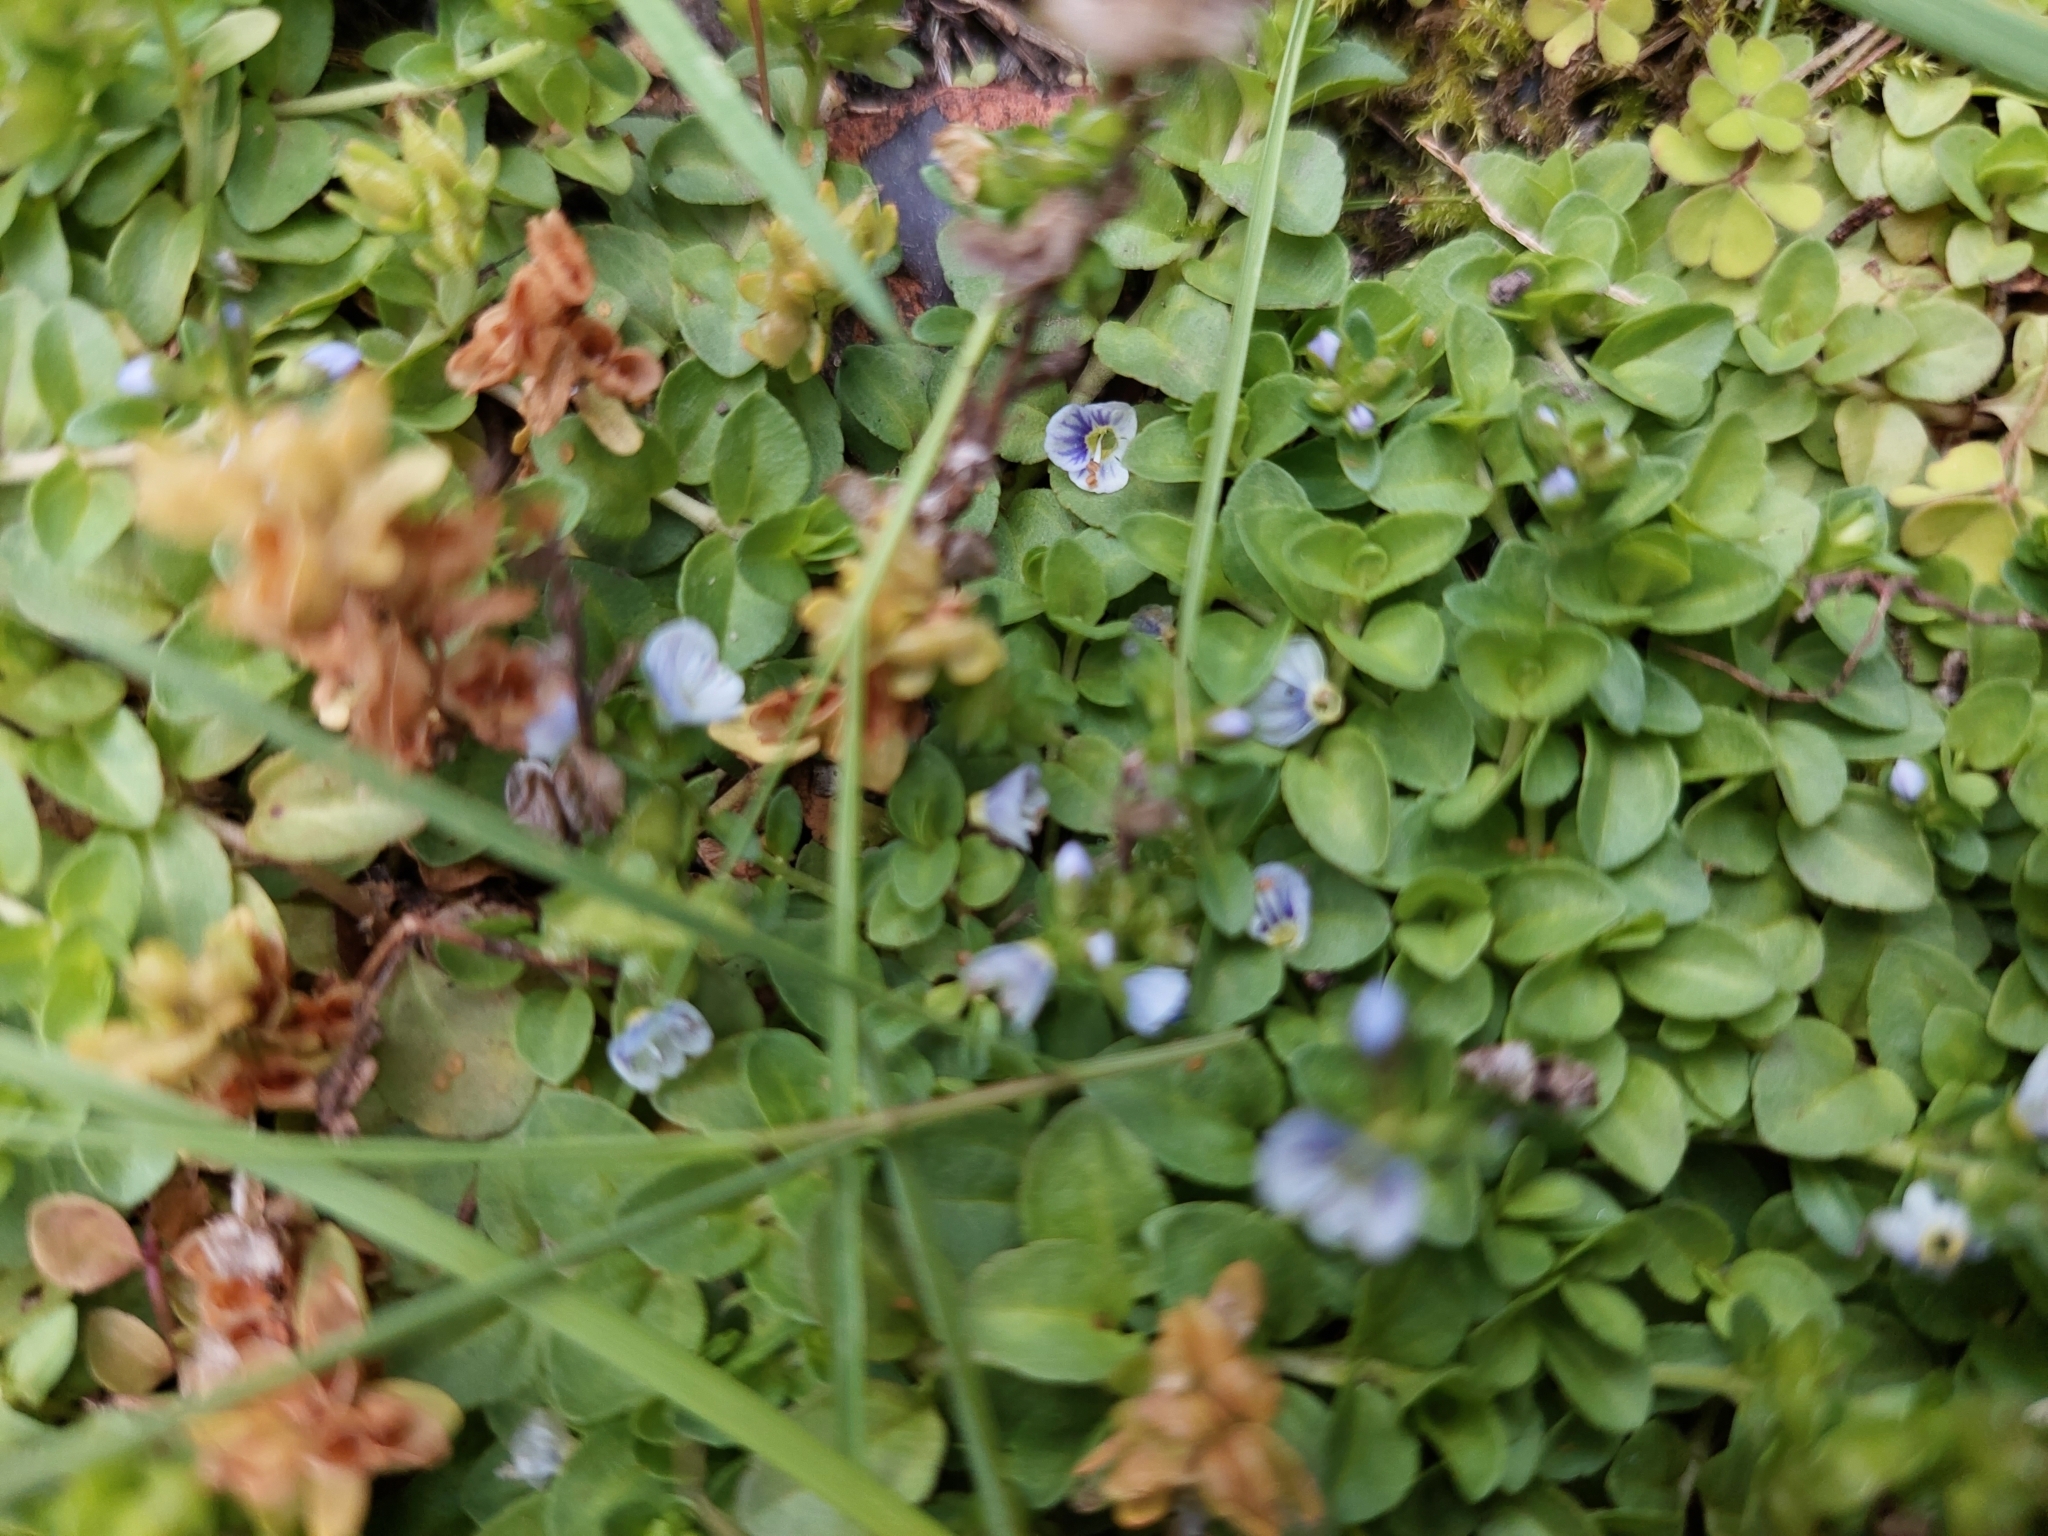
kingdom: Plantae
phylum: Tracheophyta
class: Magnoliopsida
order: Lamiales
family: Plantaginaceae
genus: Veronica
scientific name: Veronica serpyllifolia
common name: Thyme-leaved speedwell
